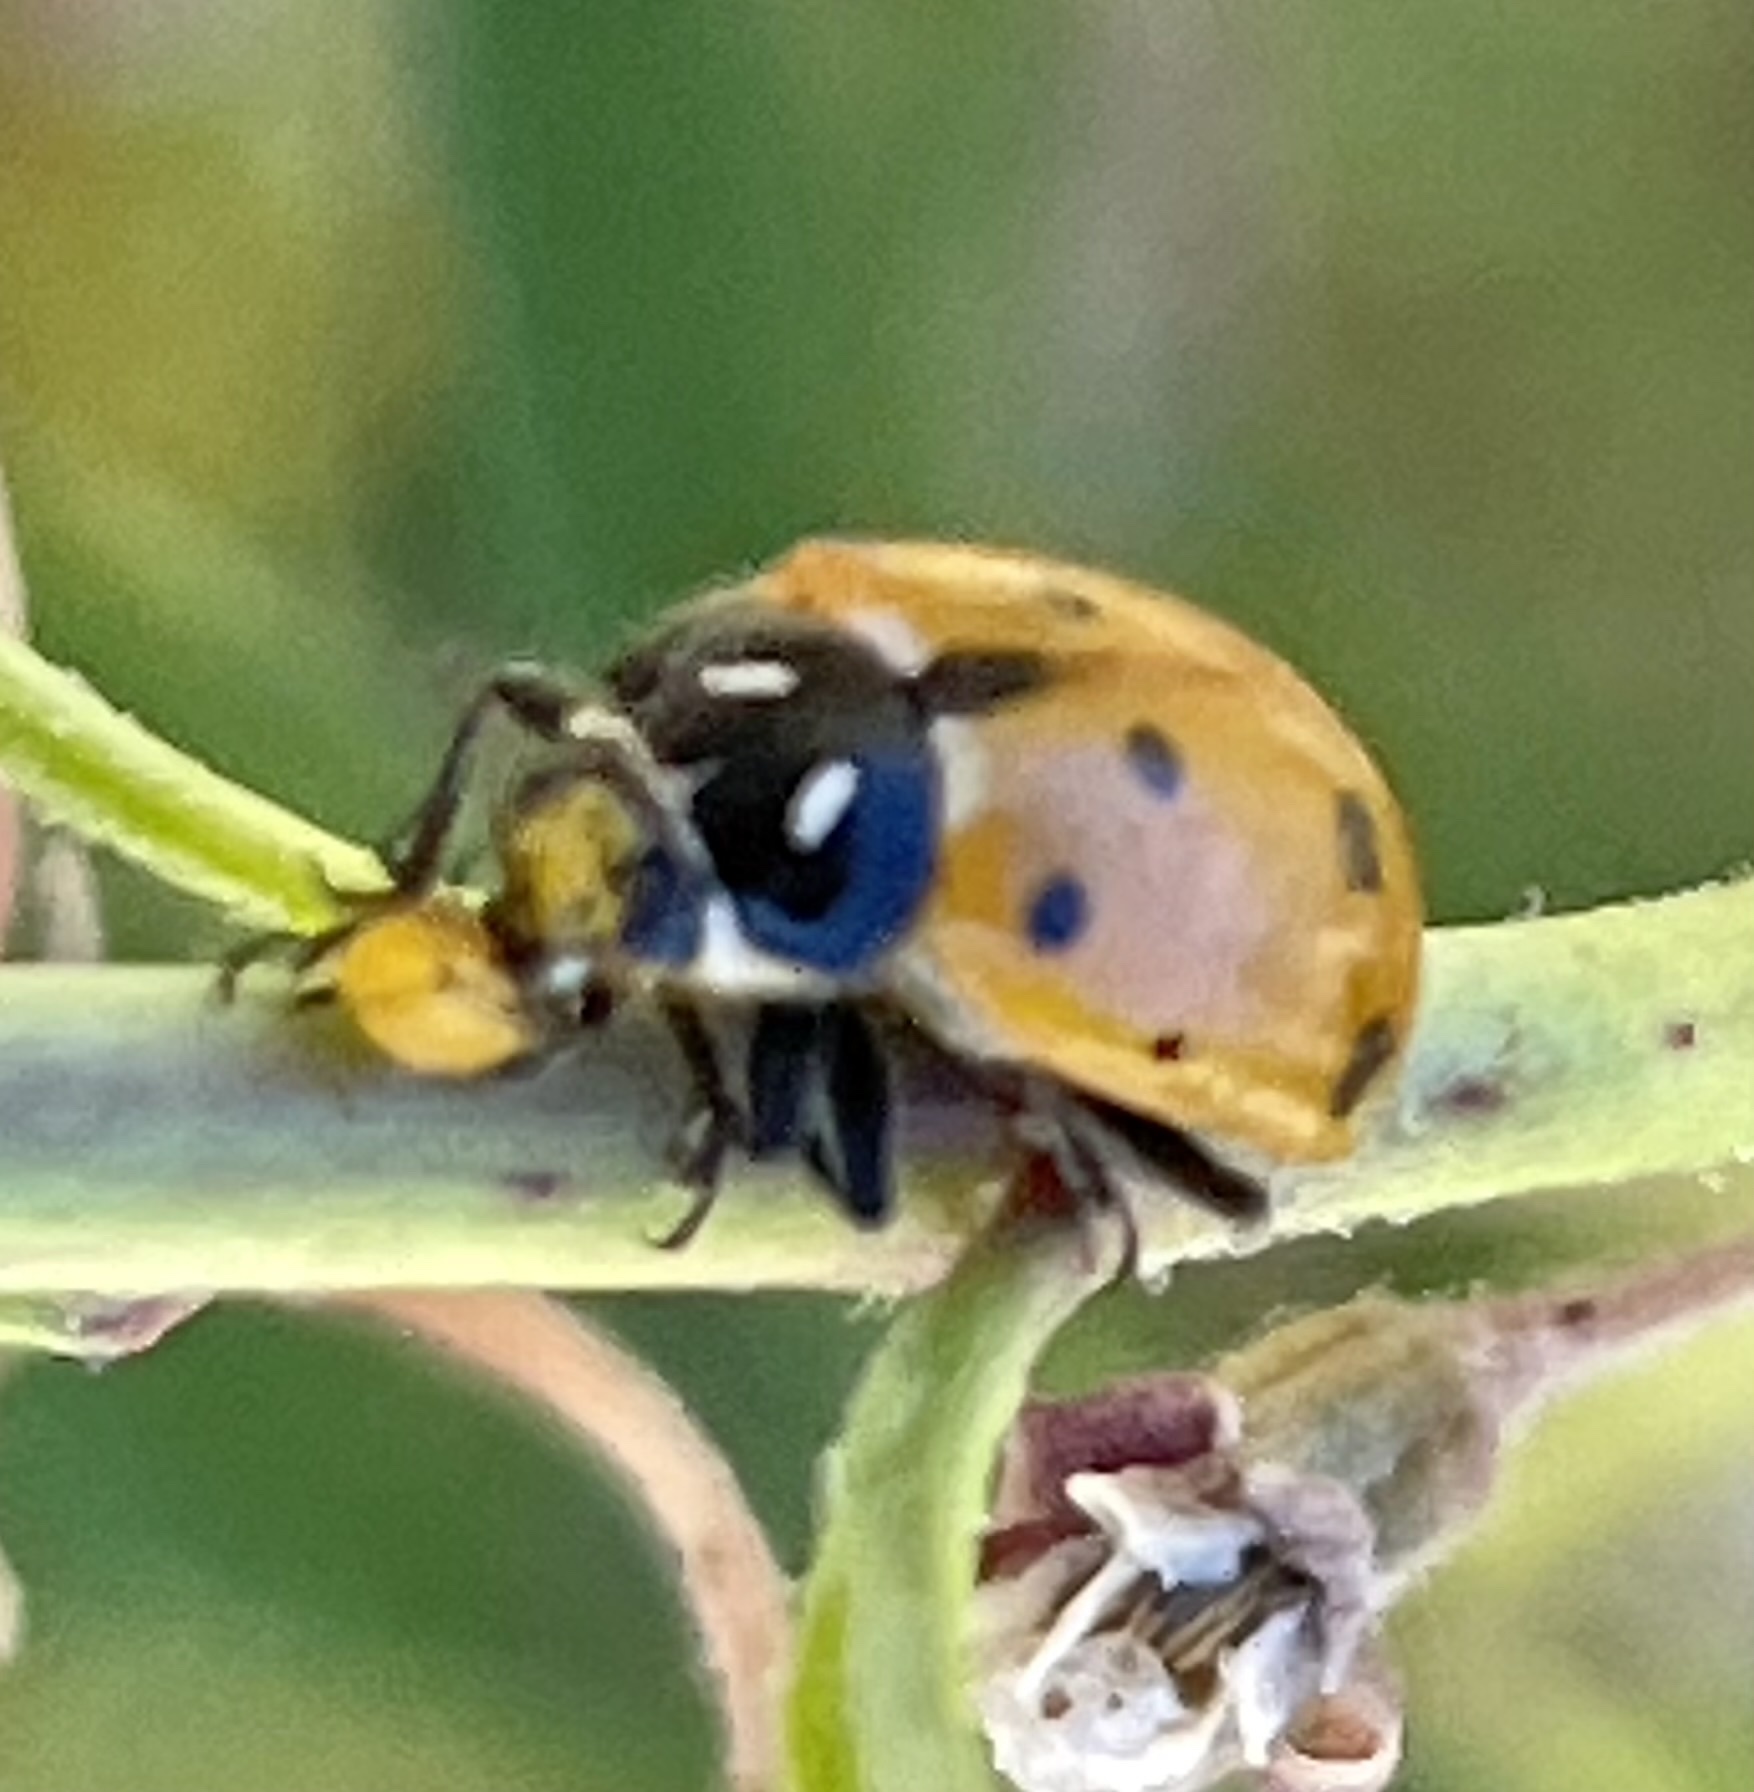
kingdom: Animalia
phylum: Arthropoda
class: Insecta
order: Coleoptera
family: Coccinellidae
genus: Hippodamia
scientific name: Hippodamia convergens
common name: Convergent lady beetle
